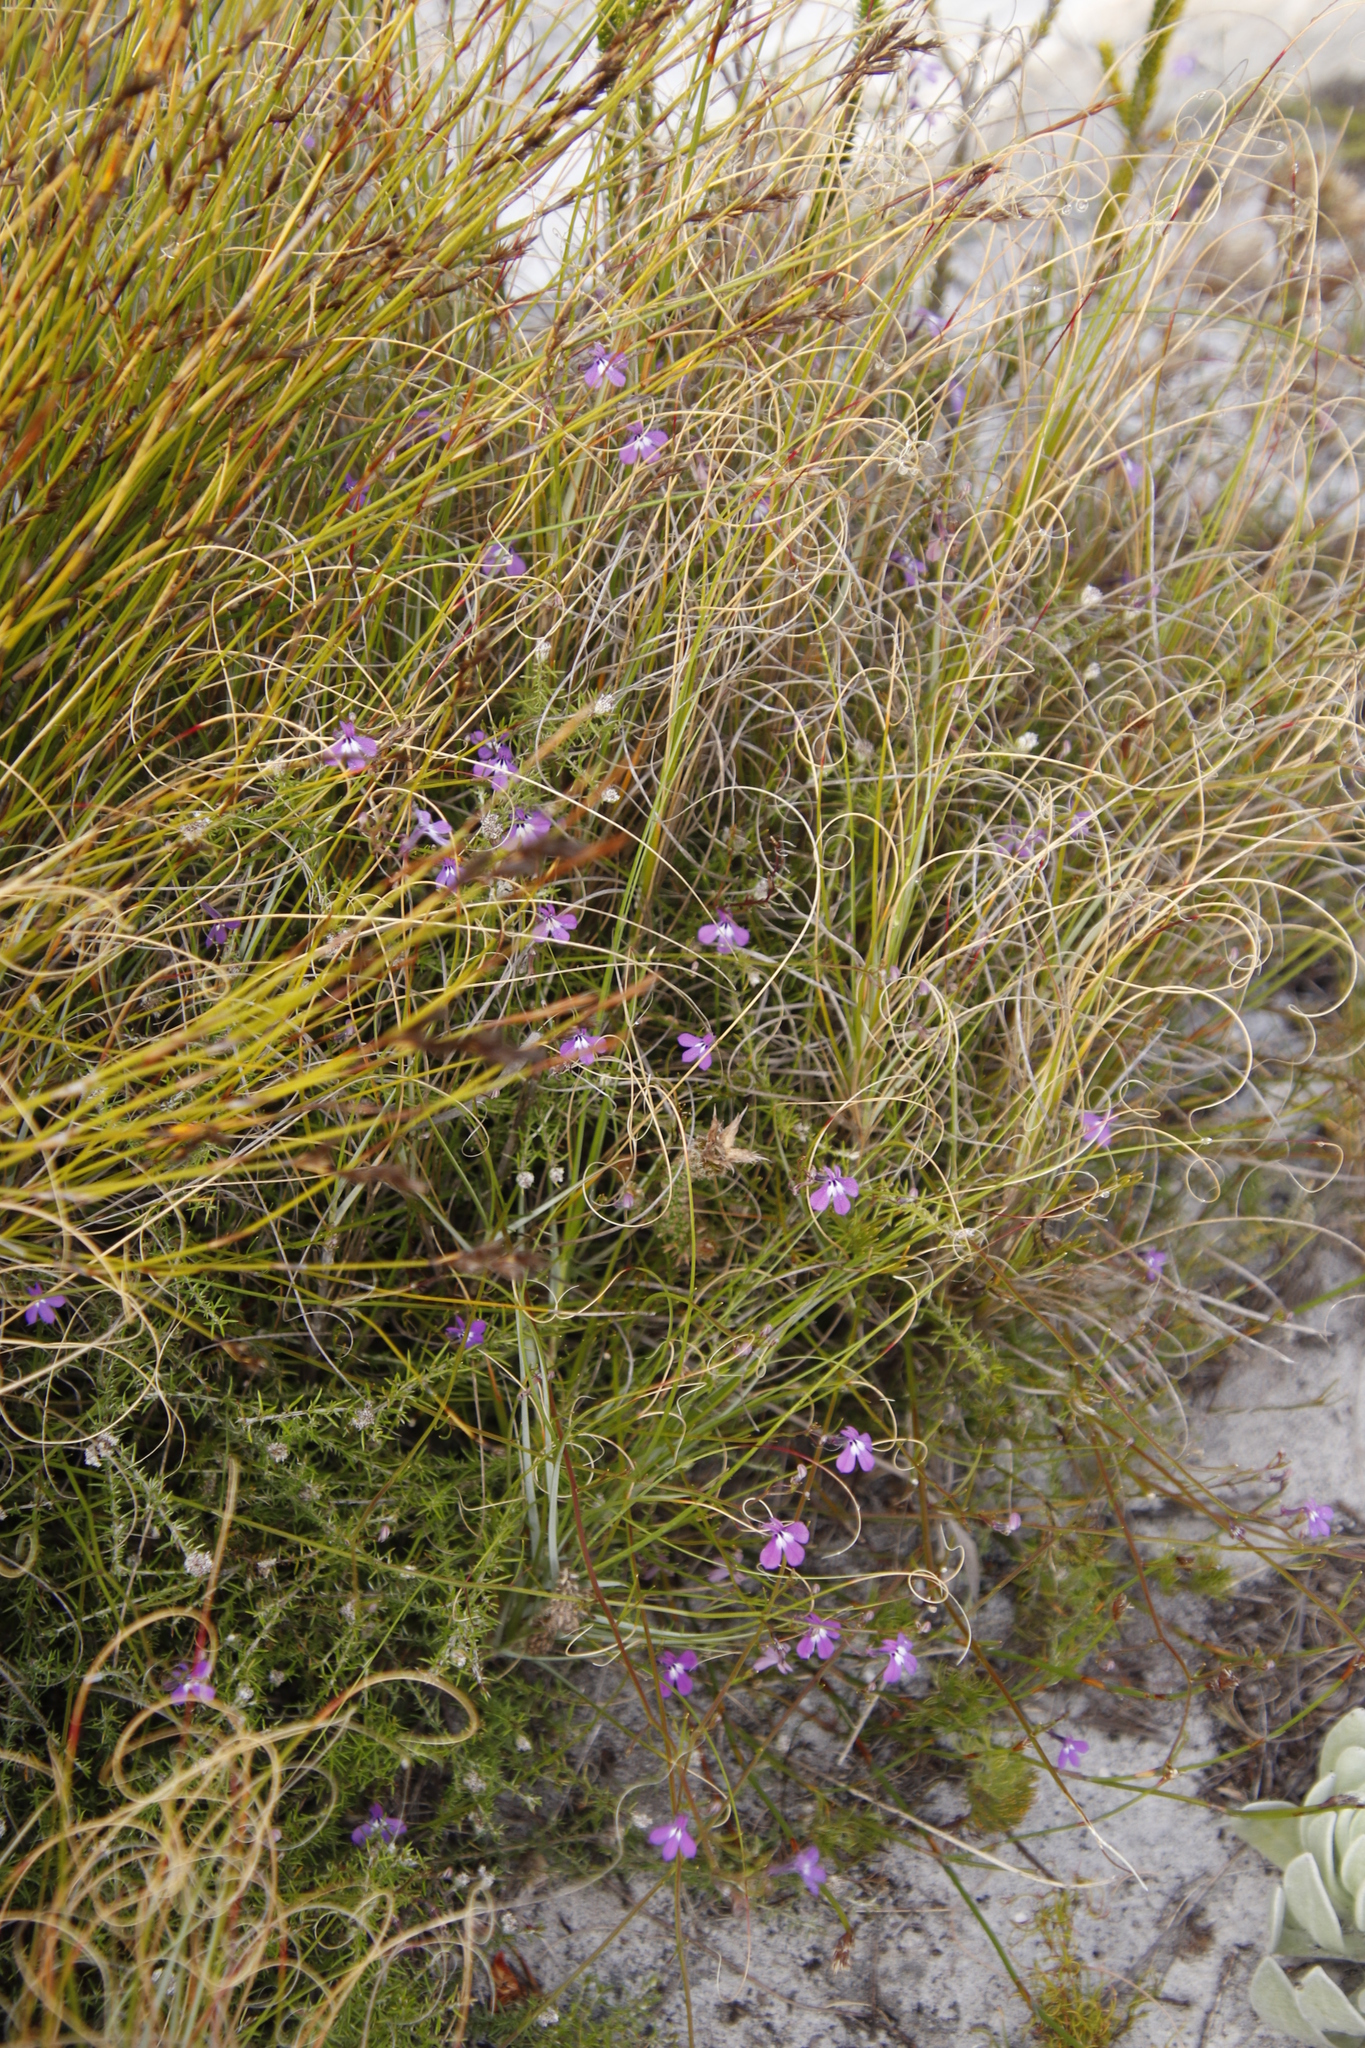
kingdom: Plantae
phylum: Tracheophyta
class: Magnoliopsida
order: Asterales
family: Campanulaceae
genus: Lobelia
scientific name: Lobelia setacea
